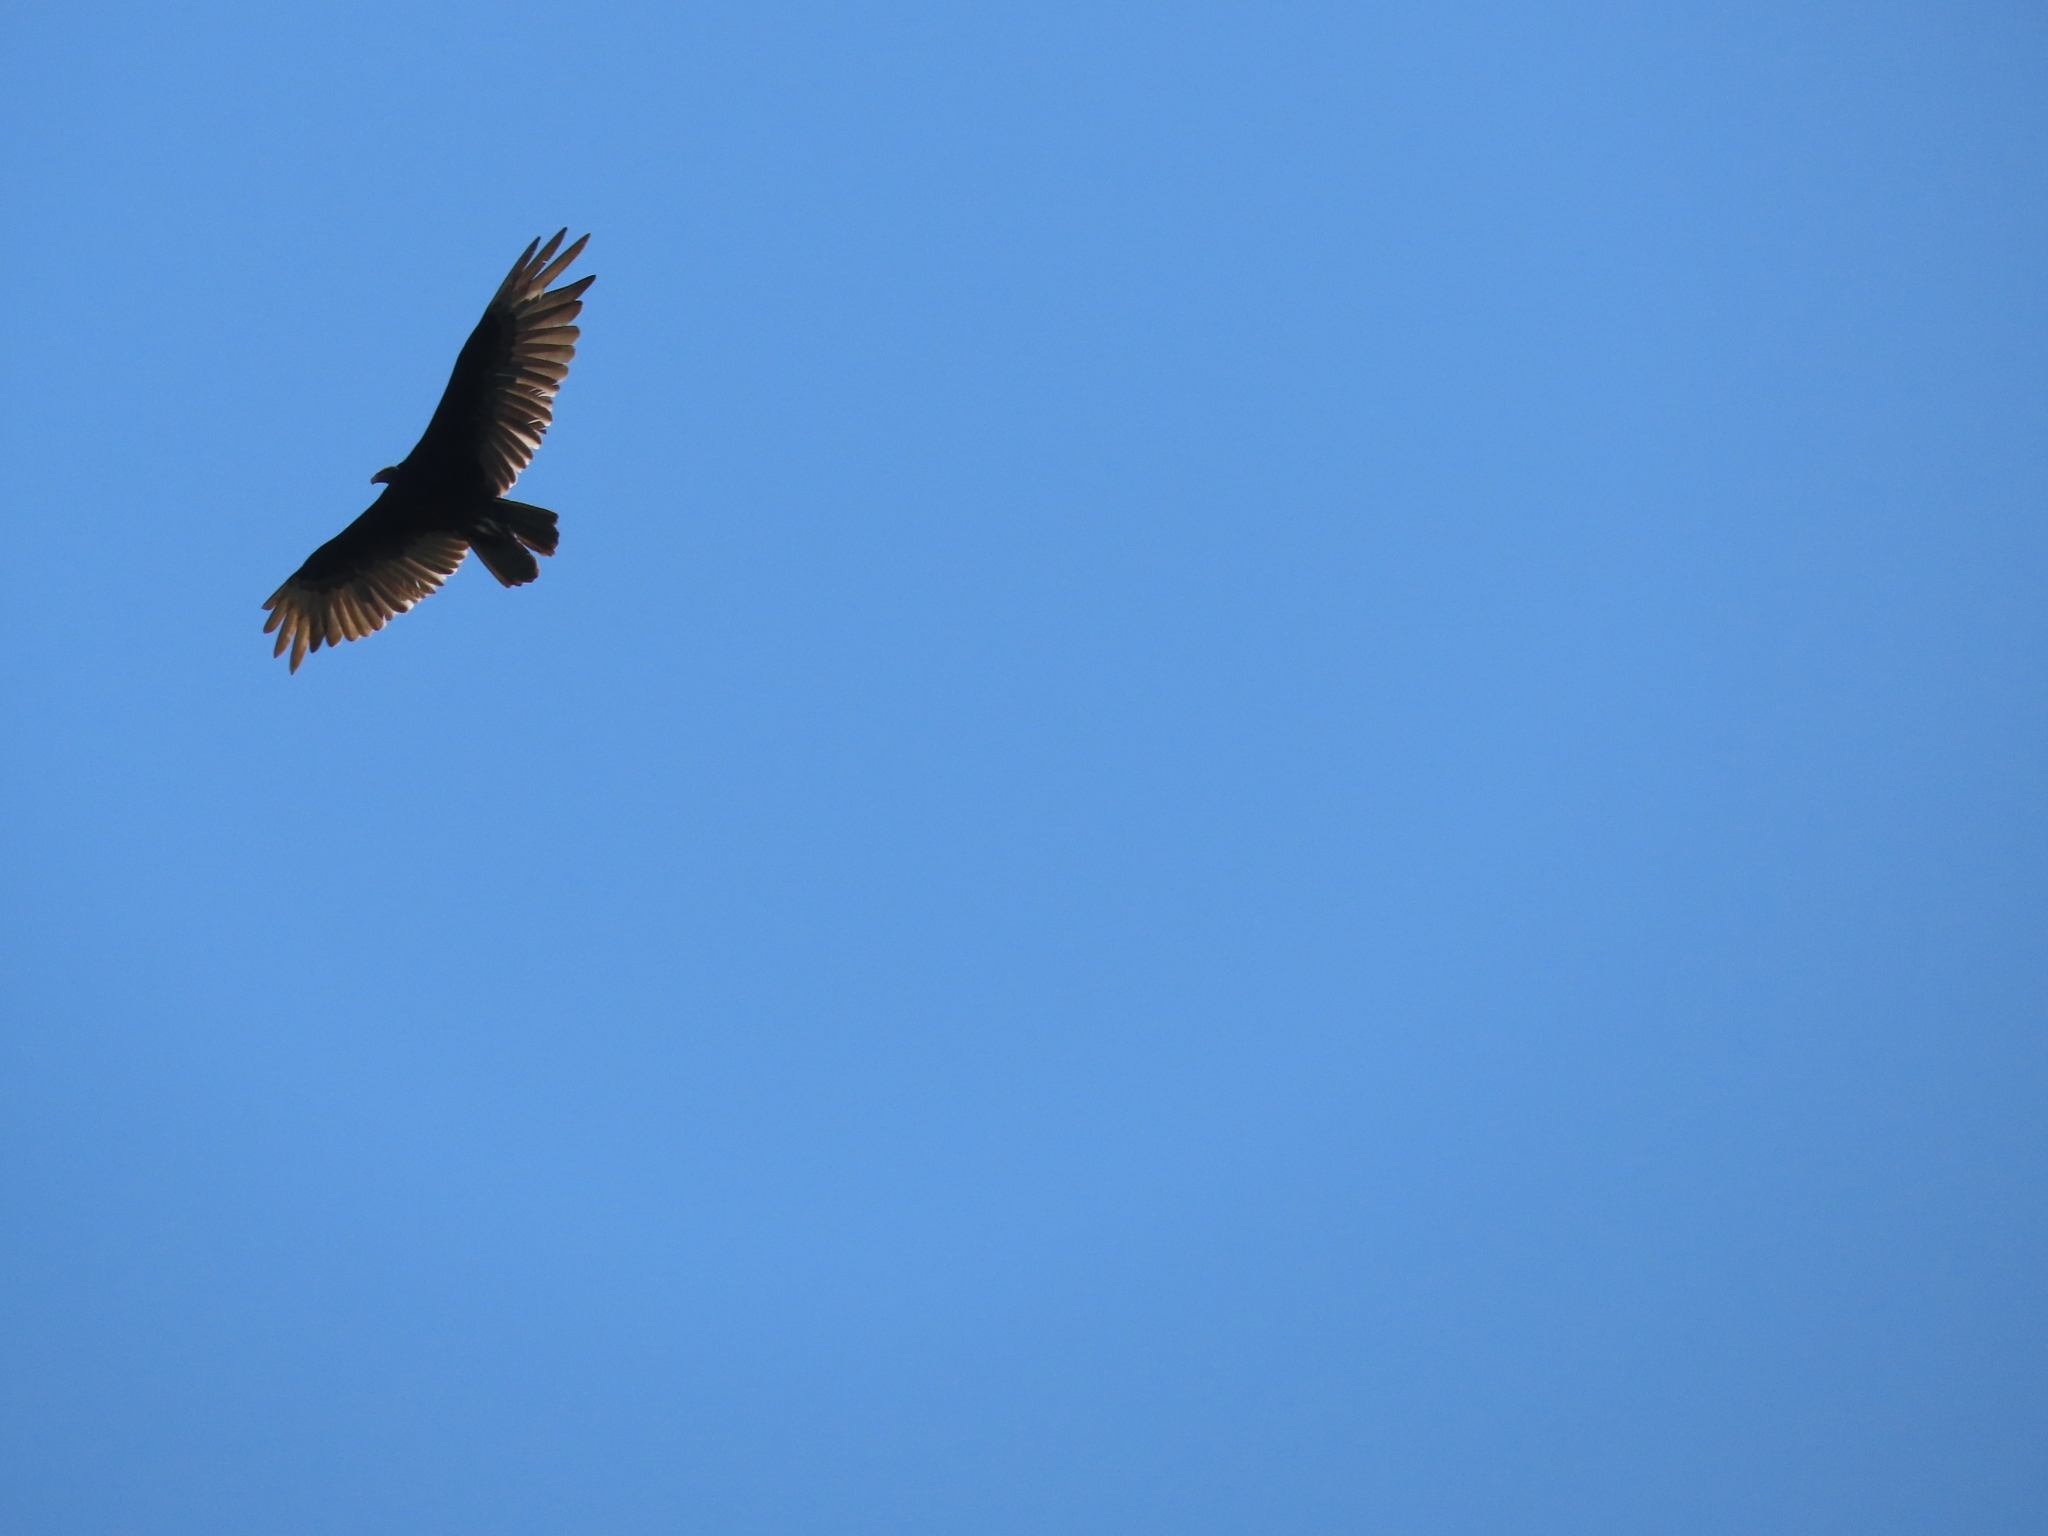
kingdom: Animalia
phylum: Chordata
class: Aves
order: Accipitriformes
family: Cathartidae
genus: Cathartes
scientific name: Cathartes aura
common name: Turkey vulture
